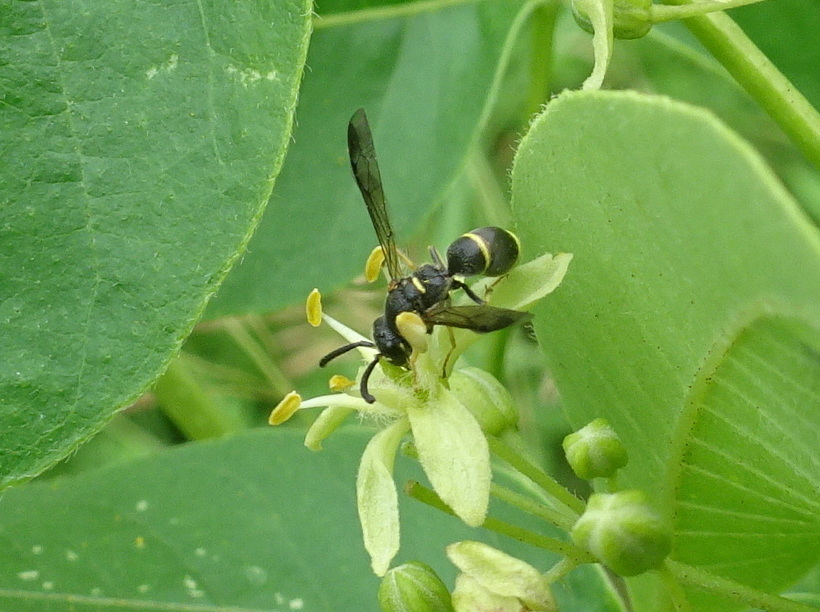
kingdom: Animalia
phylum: Arthropoda
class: Insecta
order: Hymenoptera
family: Eumenidae
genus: Parancistrocerus
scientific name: Parancistrocerus pensylvanicus
